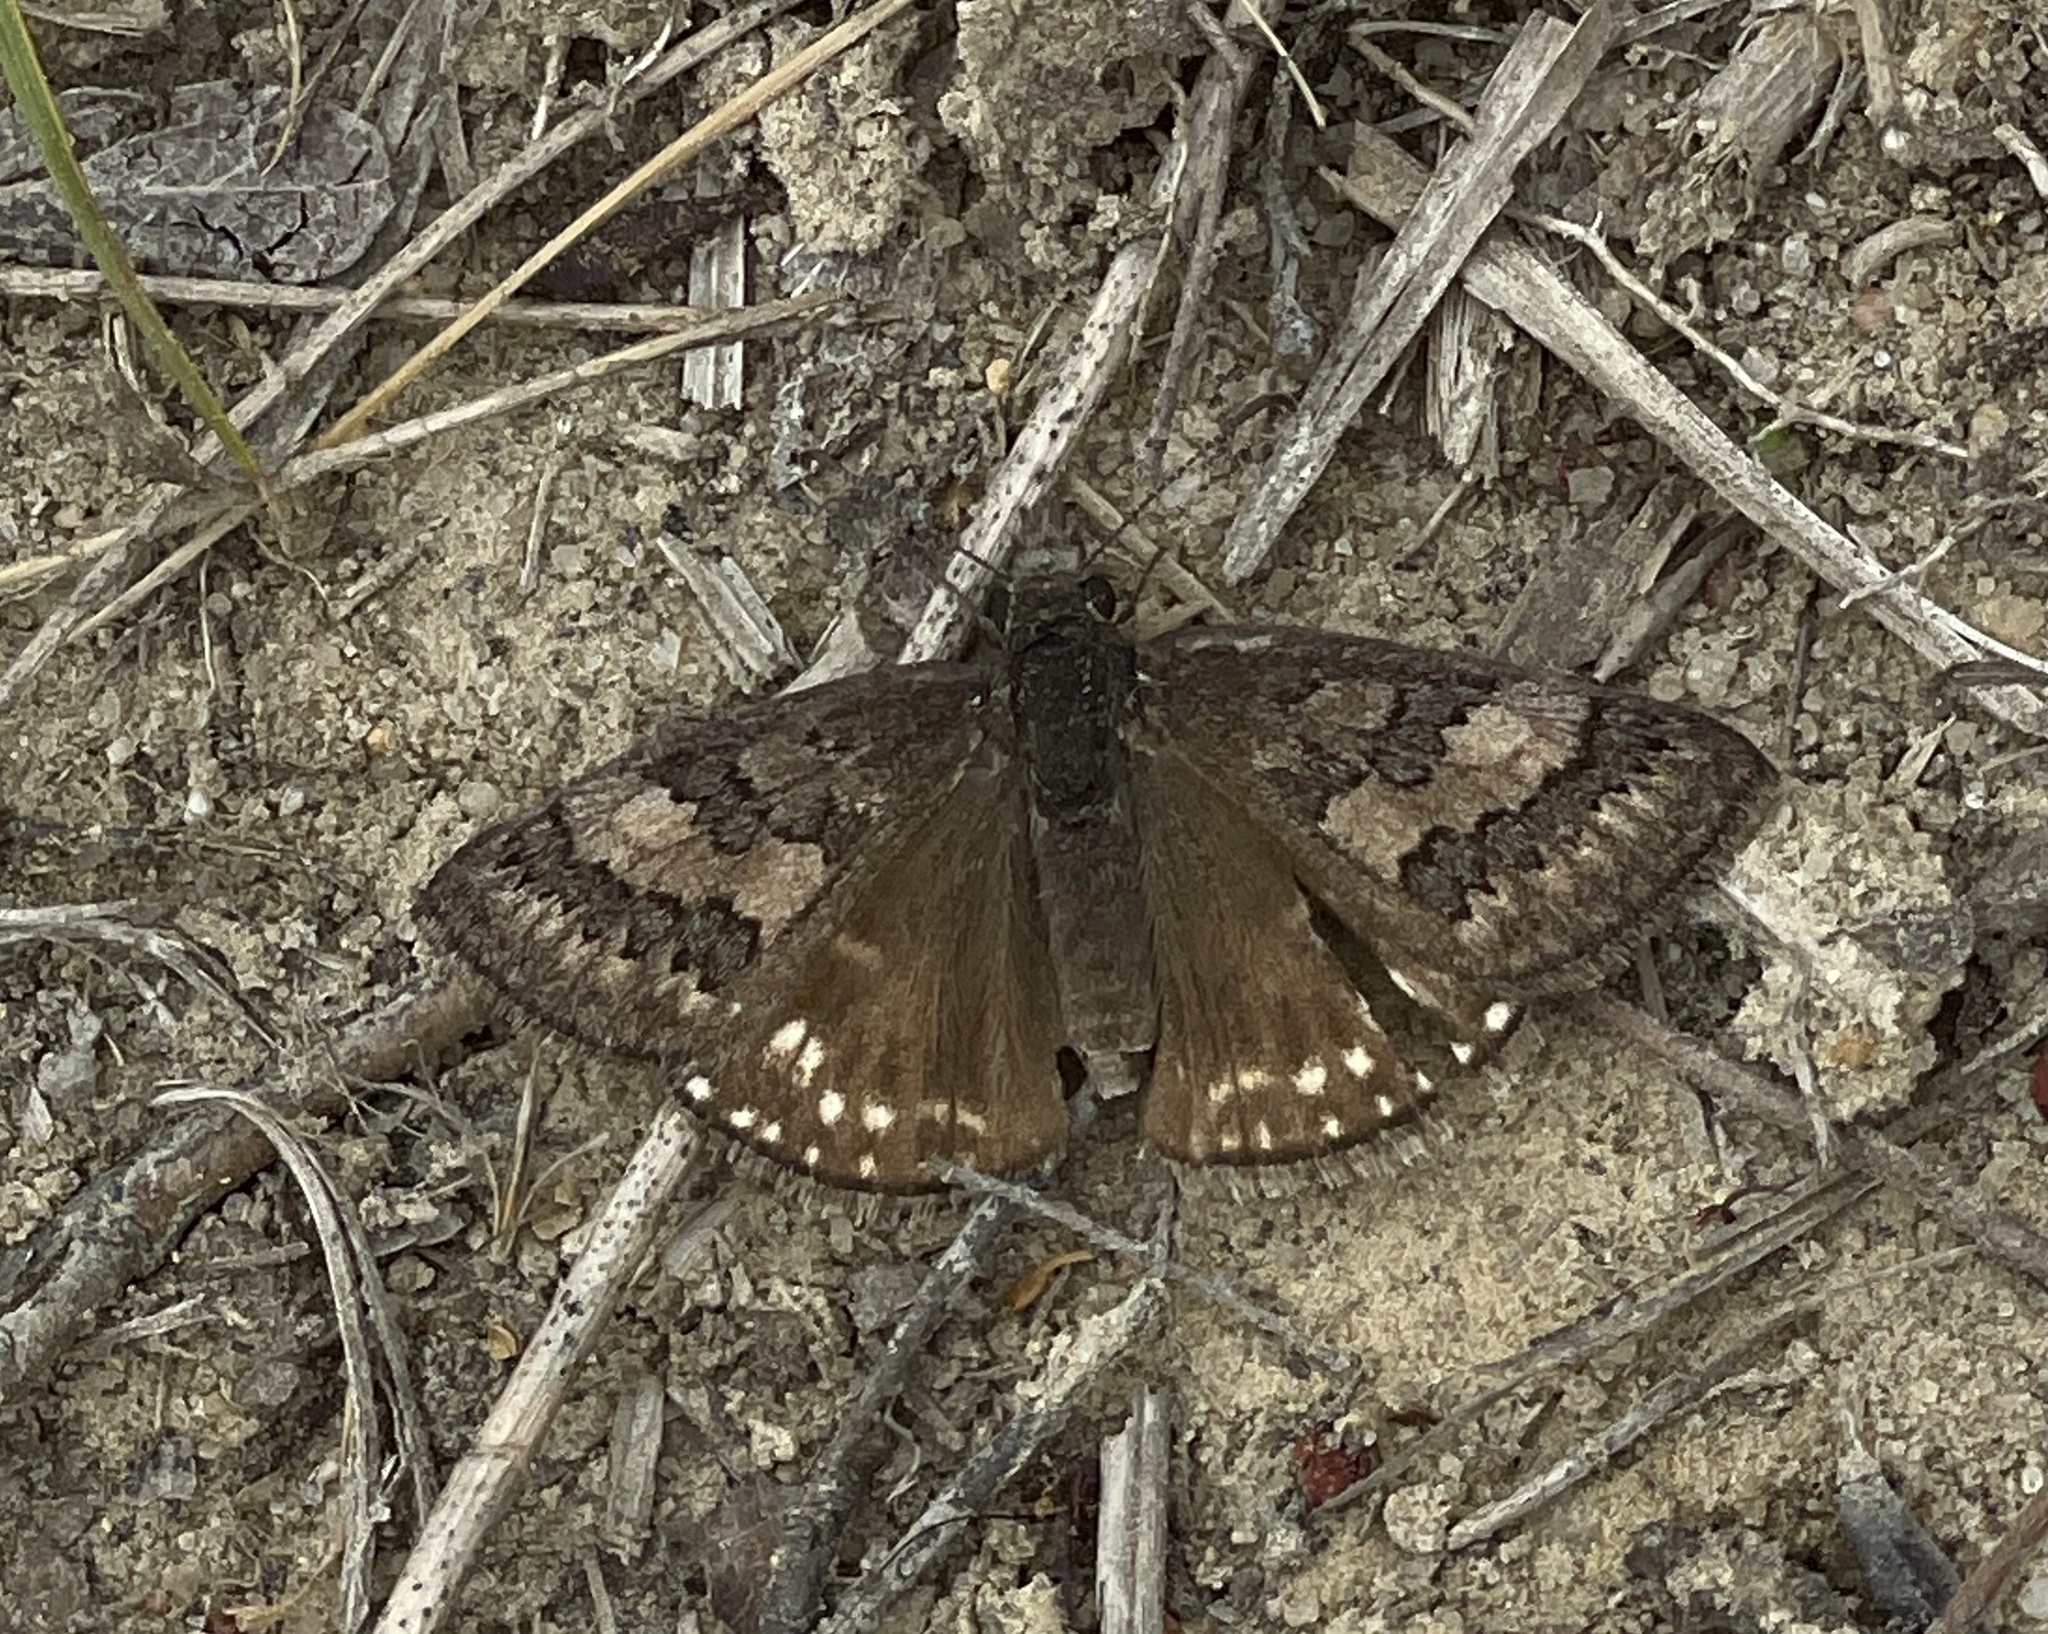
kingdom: Animalia
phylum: Arthropoda
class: Insecta
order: Lepidoptera
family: Hesperiidae
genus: Erynnis
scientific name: Erynnis brizo
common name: Sleepy duskywing
